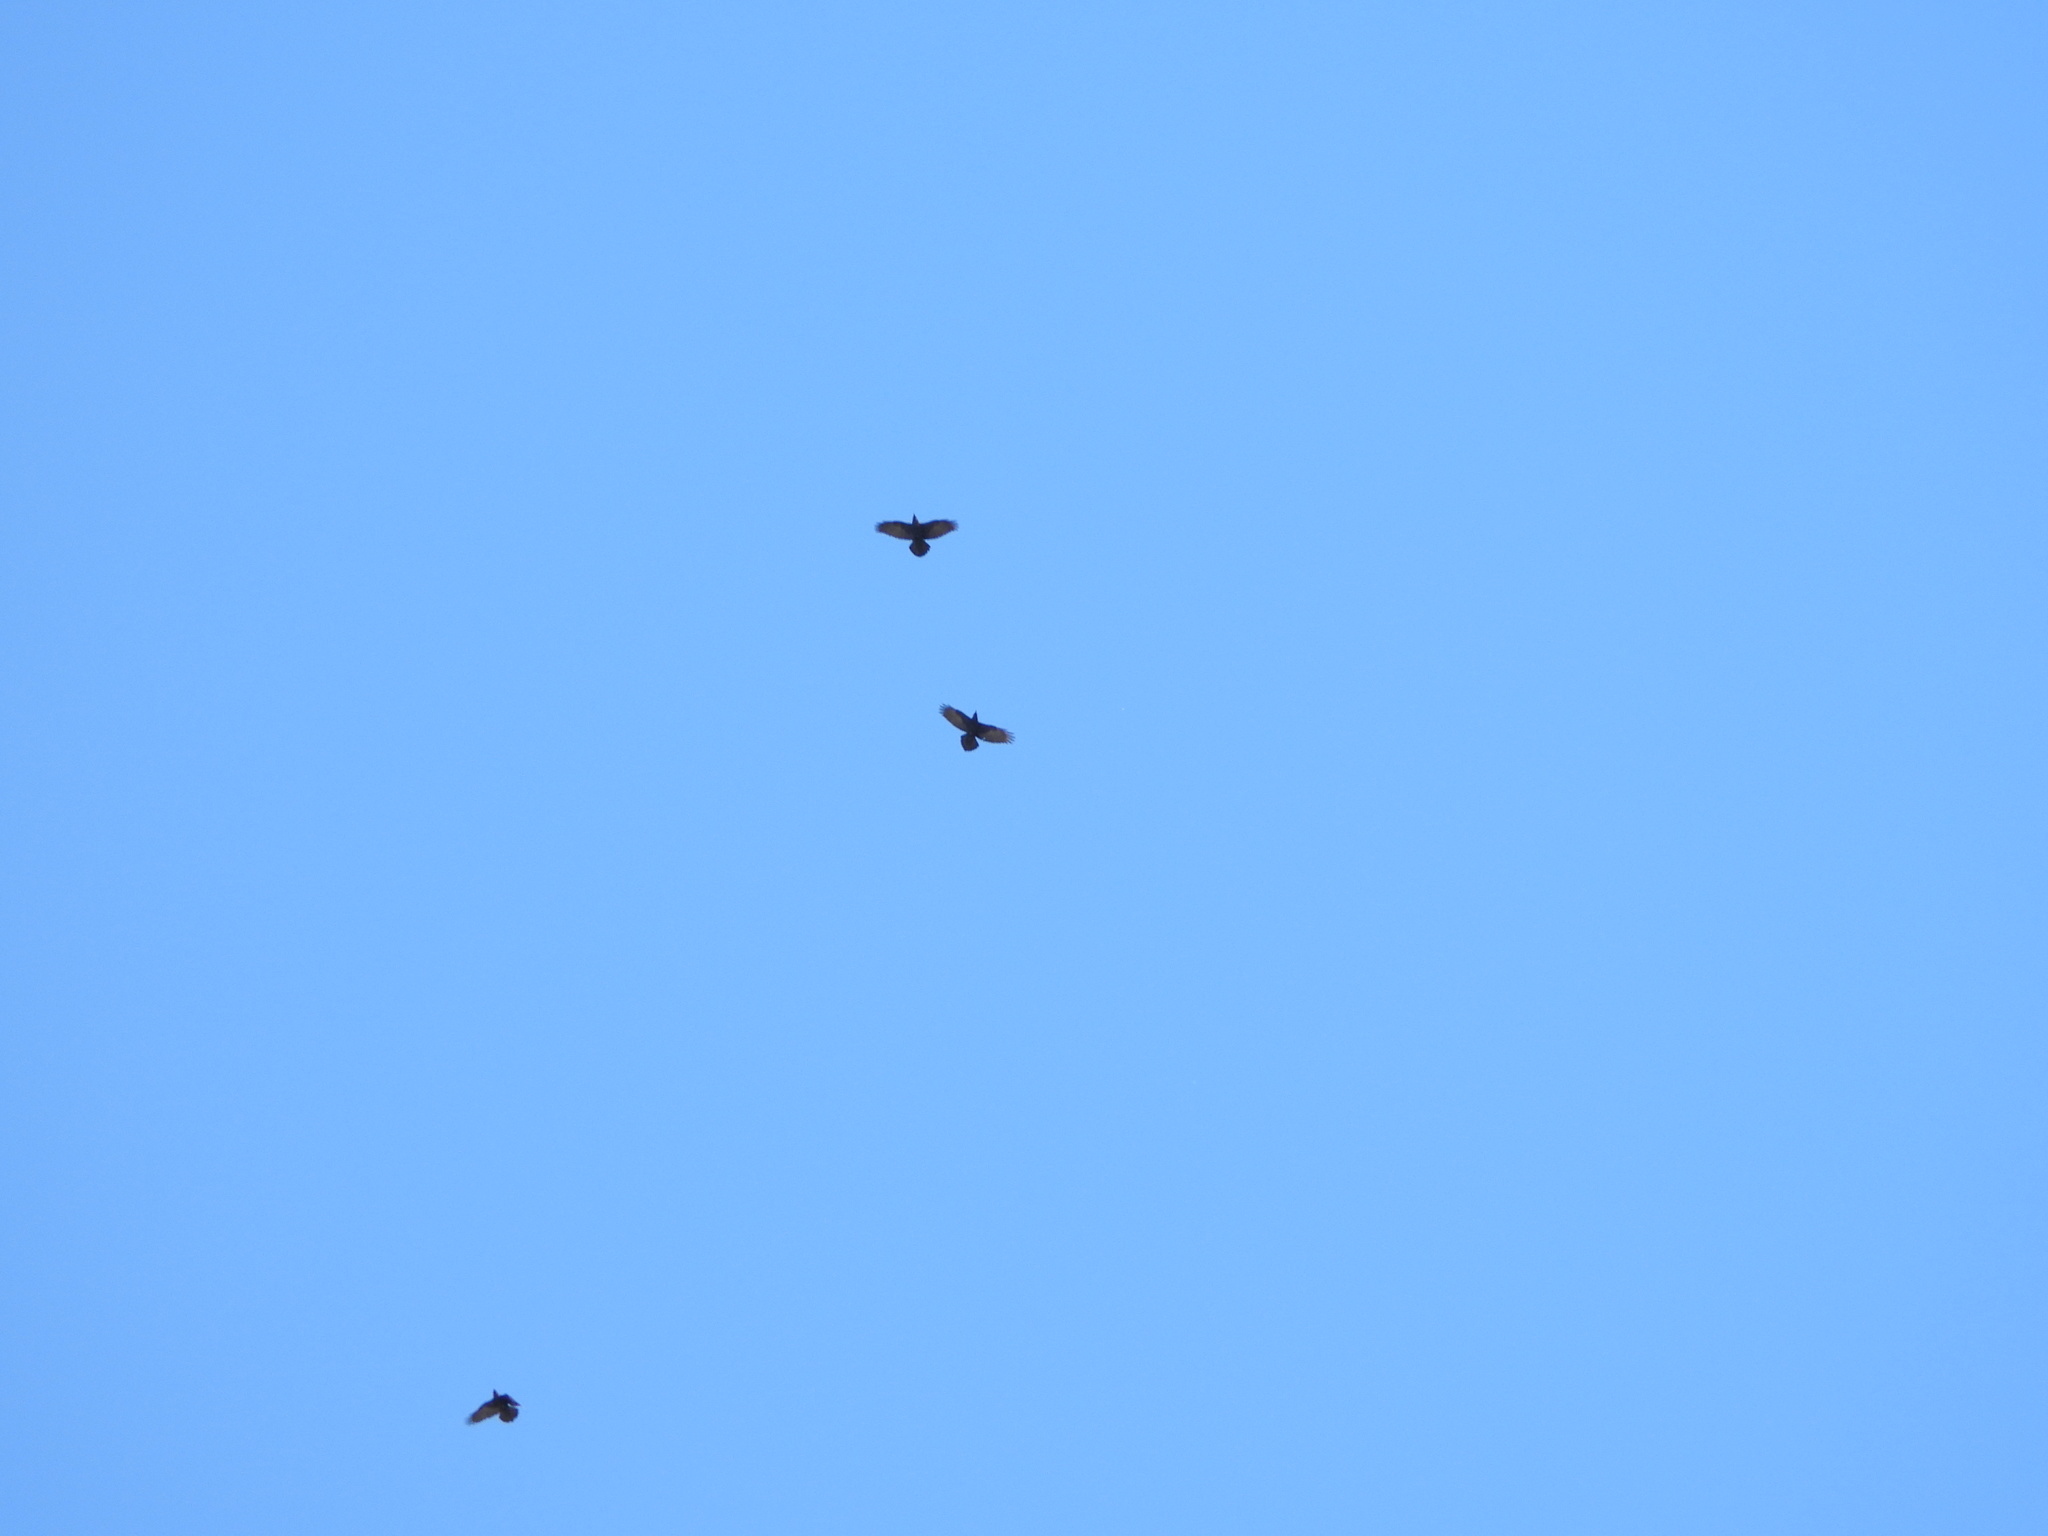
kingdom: Animalia
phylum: Chordata
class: Aves
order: Passeriformes
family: Corvidae
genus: Corvus
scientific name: Corvus corax
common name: Common raven
